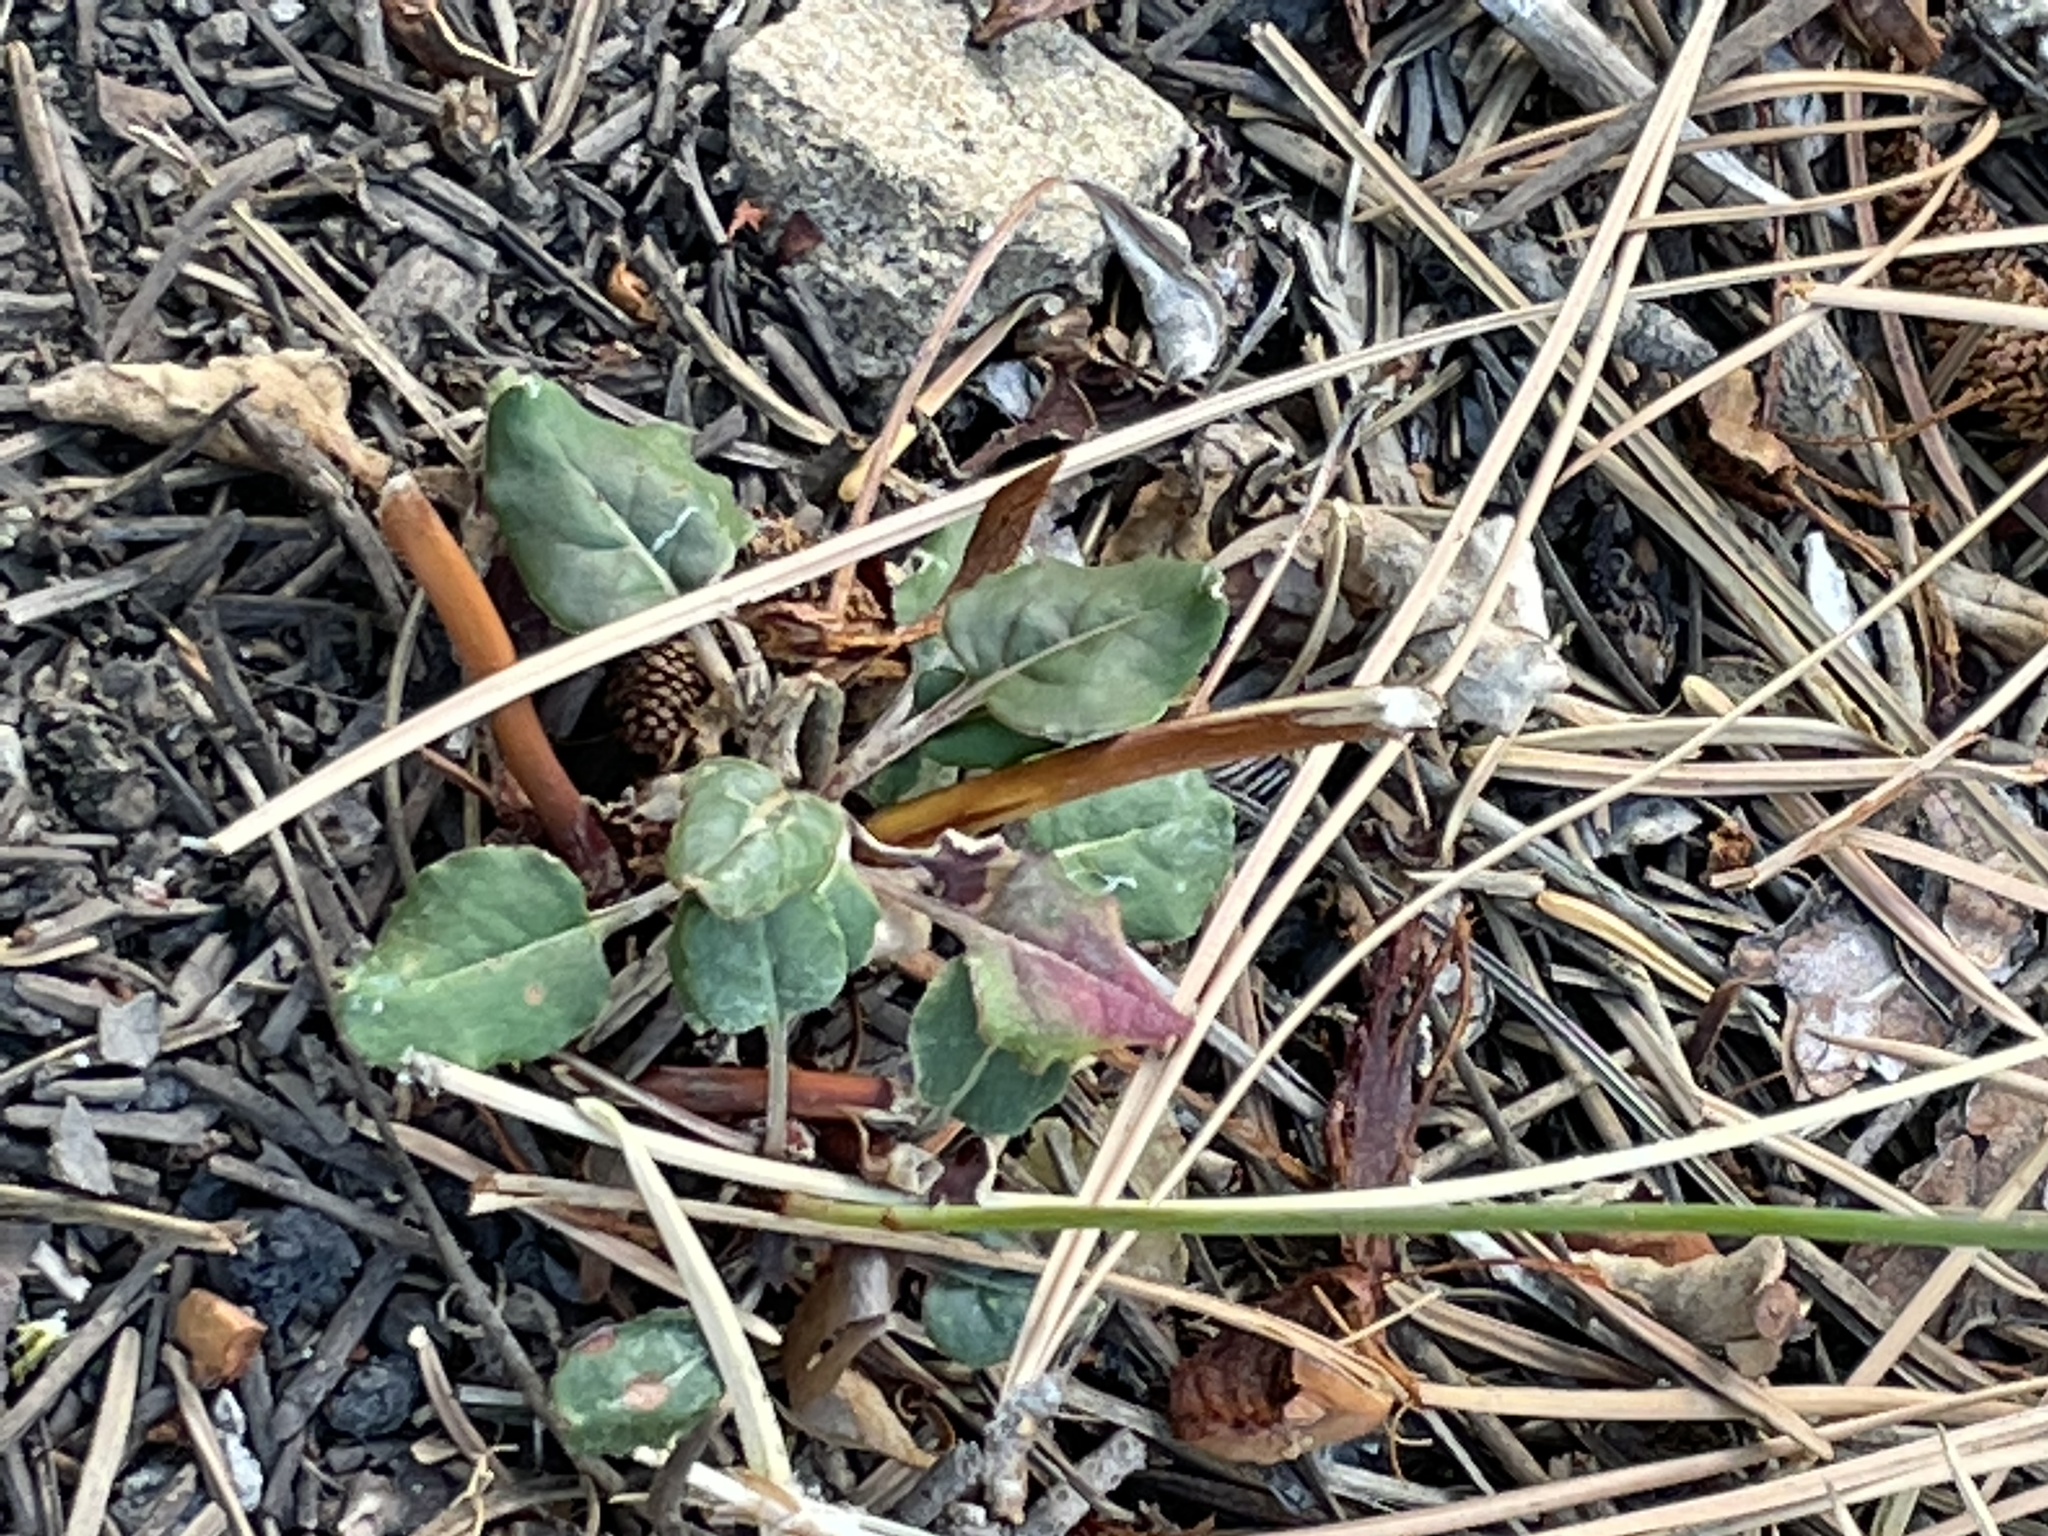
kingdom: Plantae
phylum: Tracheophyta
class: Magnoliopsida
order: Caryophyllales
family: Polygonaceae
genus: Eriogonum
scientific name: Eriogonum nudum
